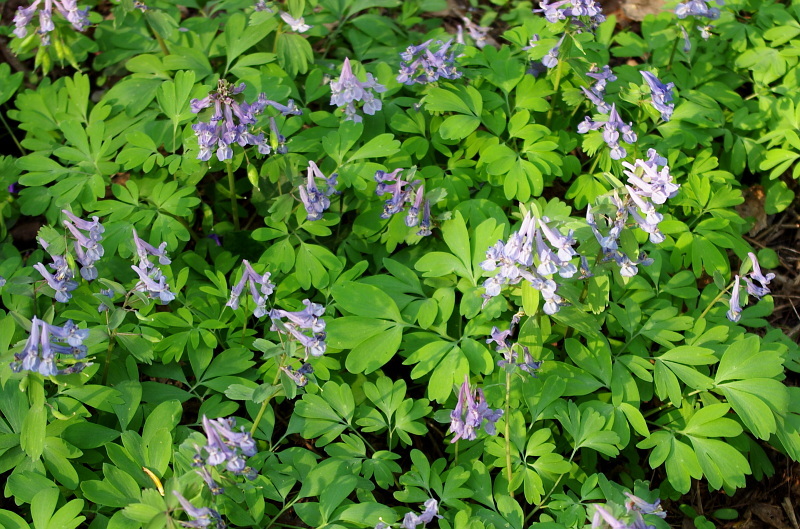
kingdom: Plantae
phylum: Tracheophyta
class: Magnoliopsida
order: Ranunculales
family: Papaveraceae
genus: Corydalis
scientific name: Corydalis solida
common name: Bird-in-a-bush
